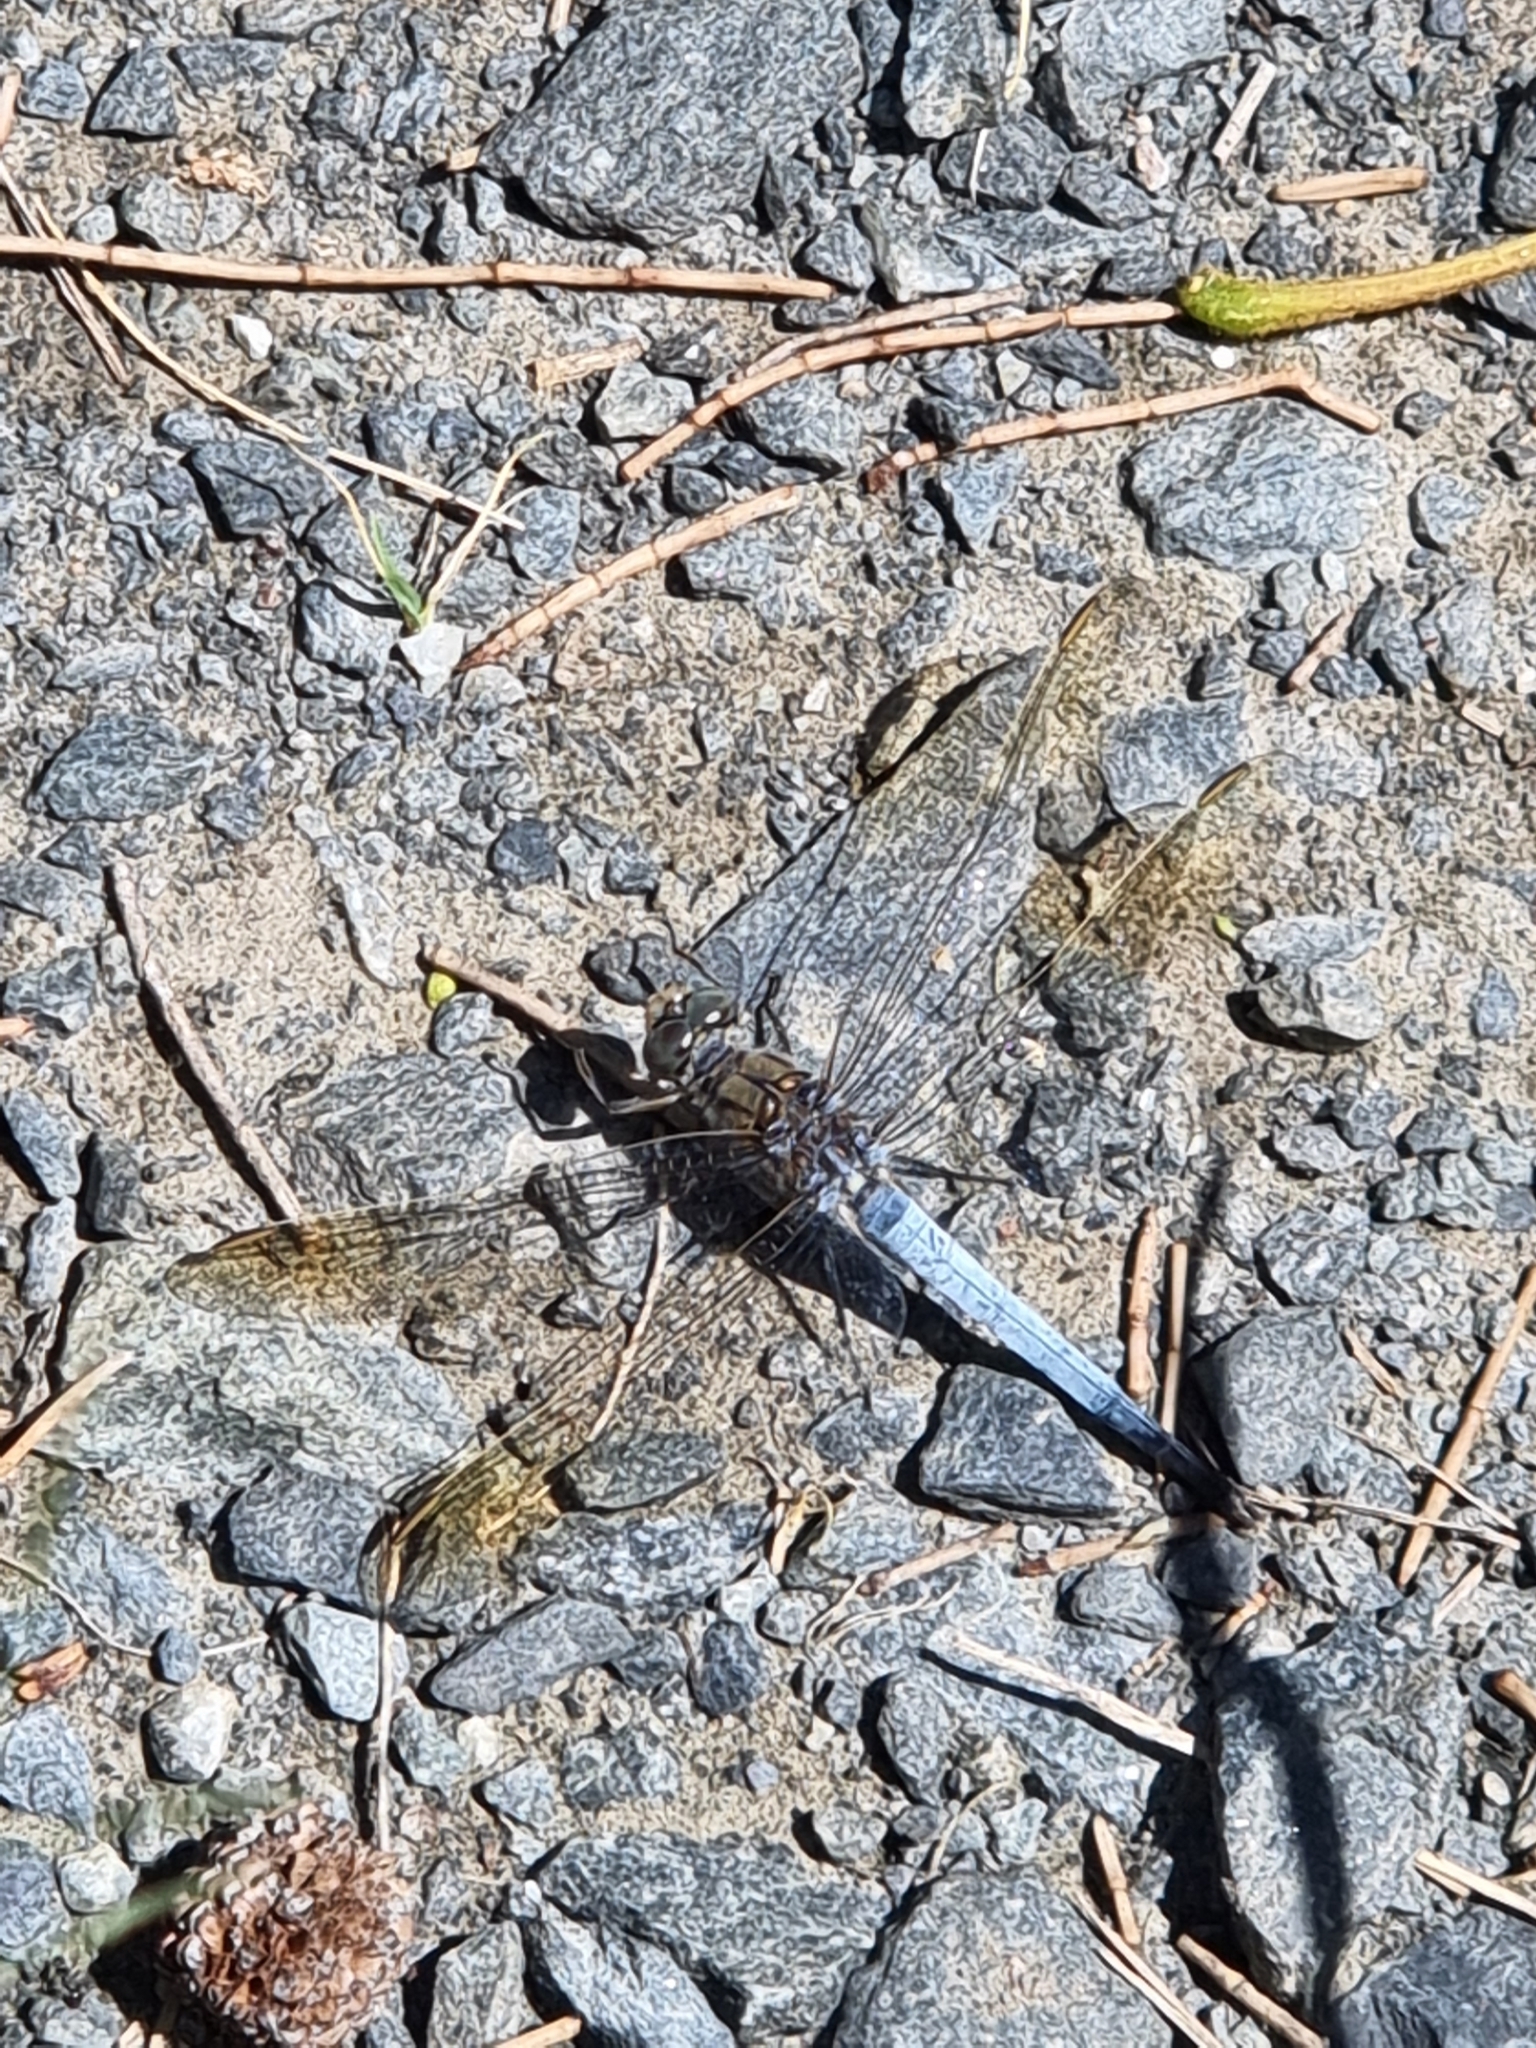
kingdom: Animalia
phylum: Arthropoda
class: Insecta
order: Odonata
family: Libellulidae
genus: Orthetrum
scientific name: Orthetrum caledonicum
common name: Blue skimmer
